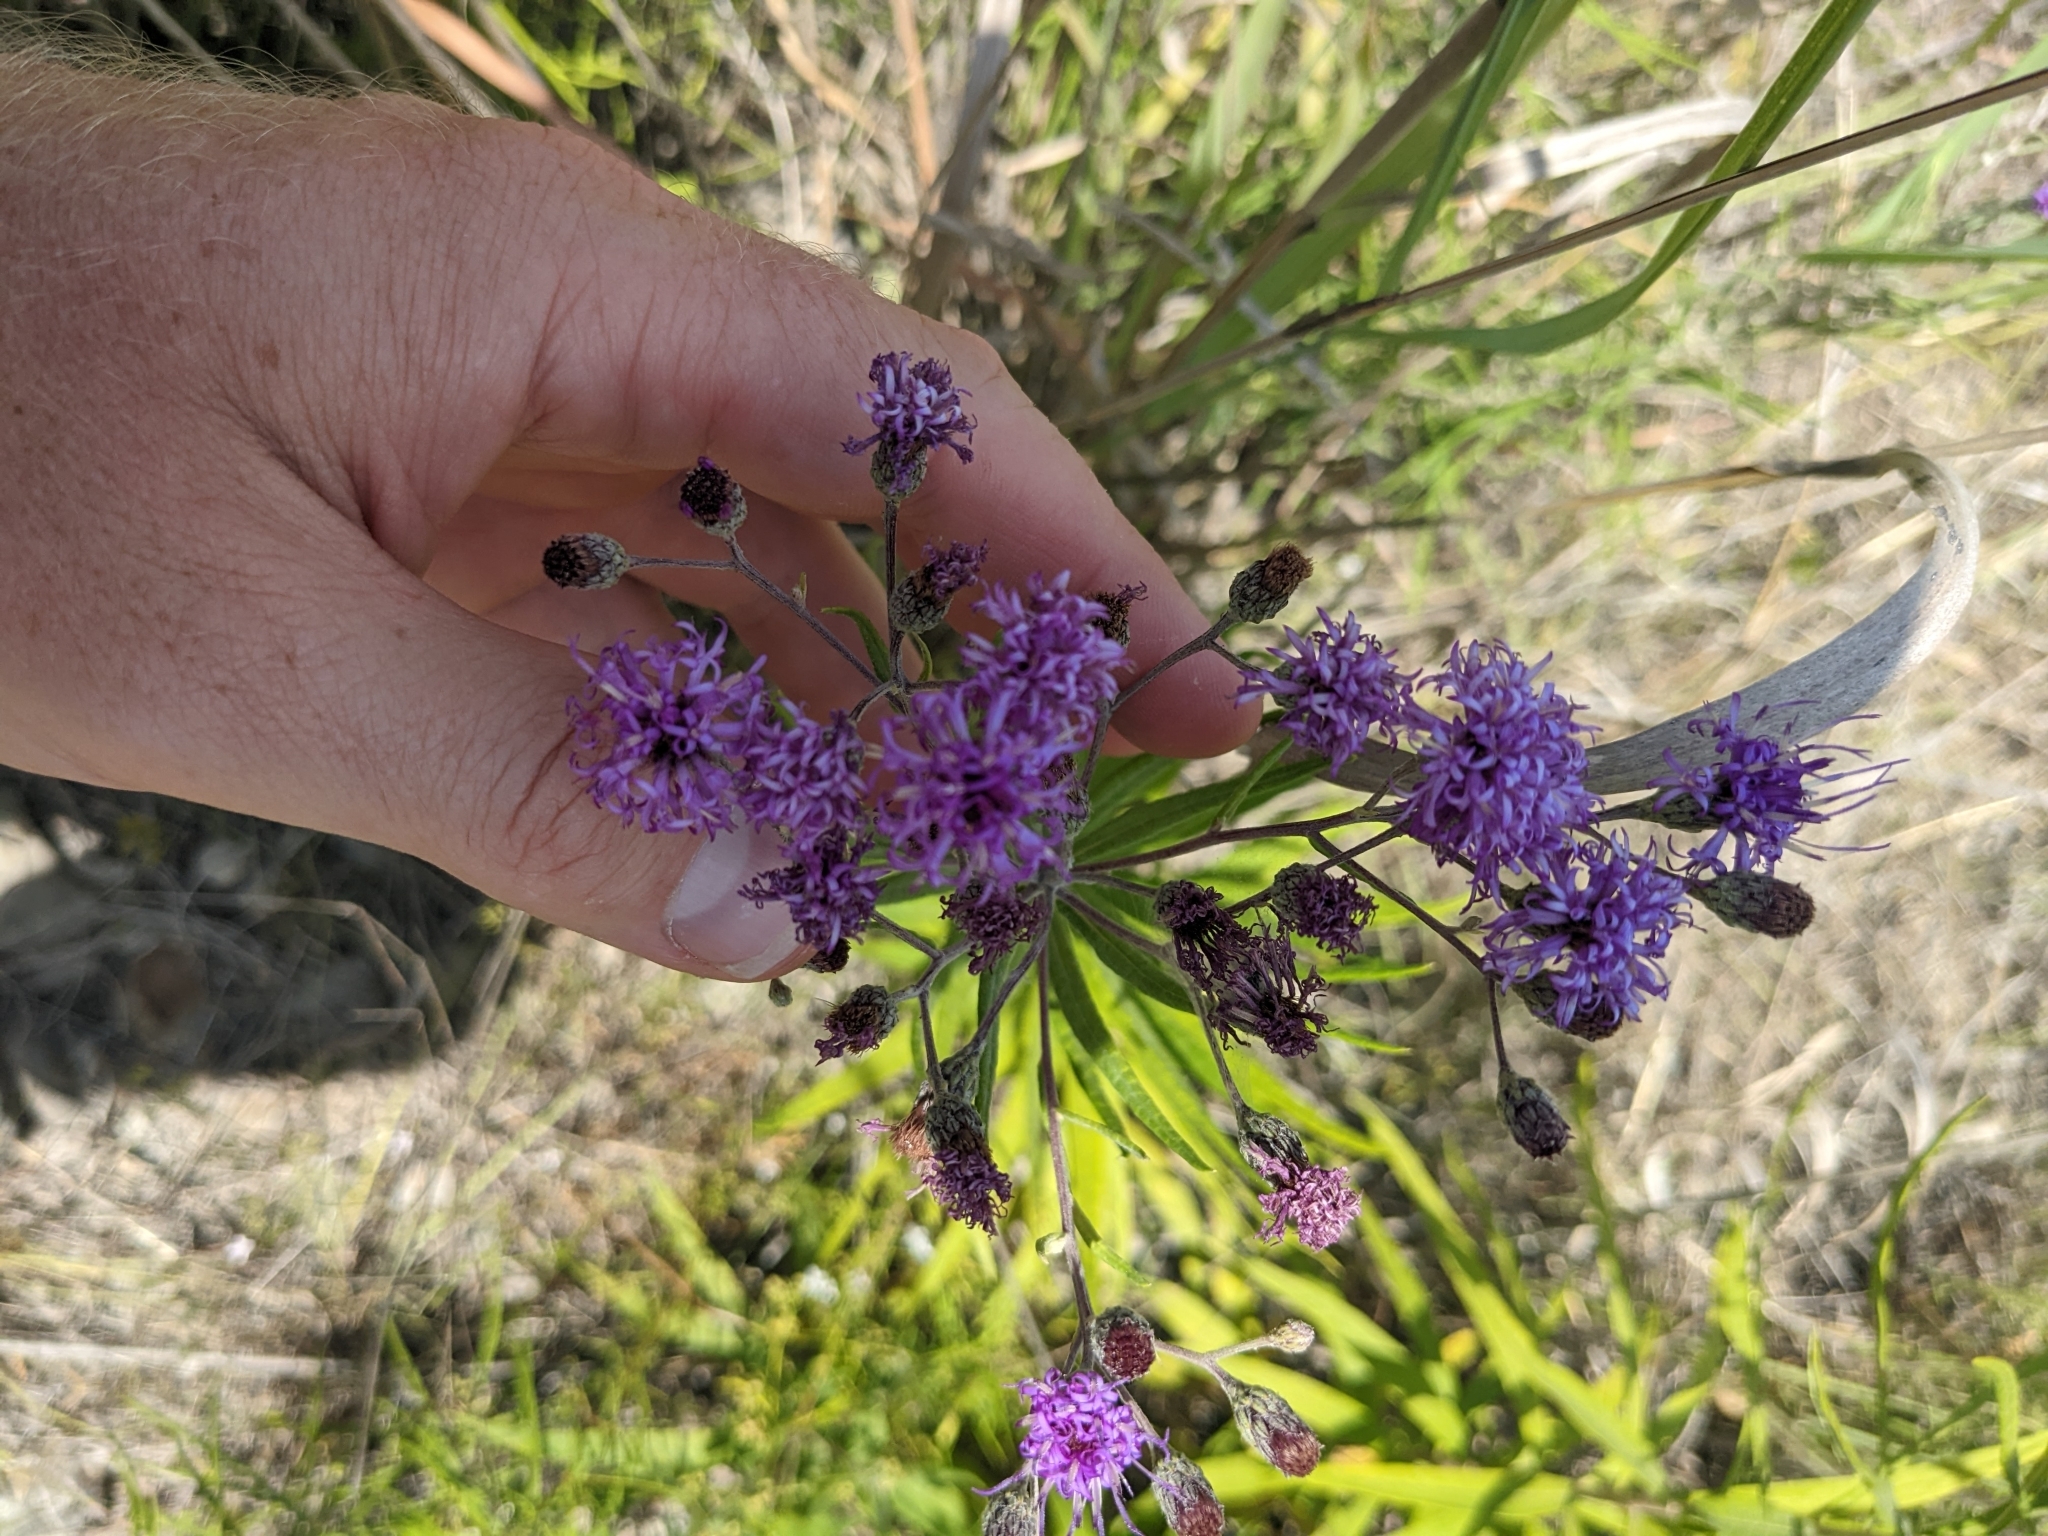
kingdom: Plantae
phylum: Tracheophyta
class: Magnoliopsida
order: Asterales
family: Asteraceae
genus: Vernonia
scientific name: Vernonia guadalupensis
